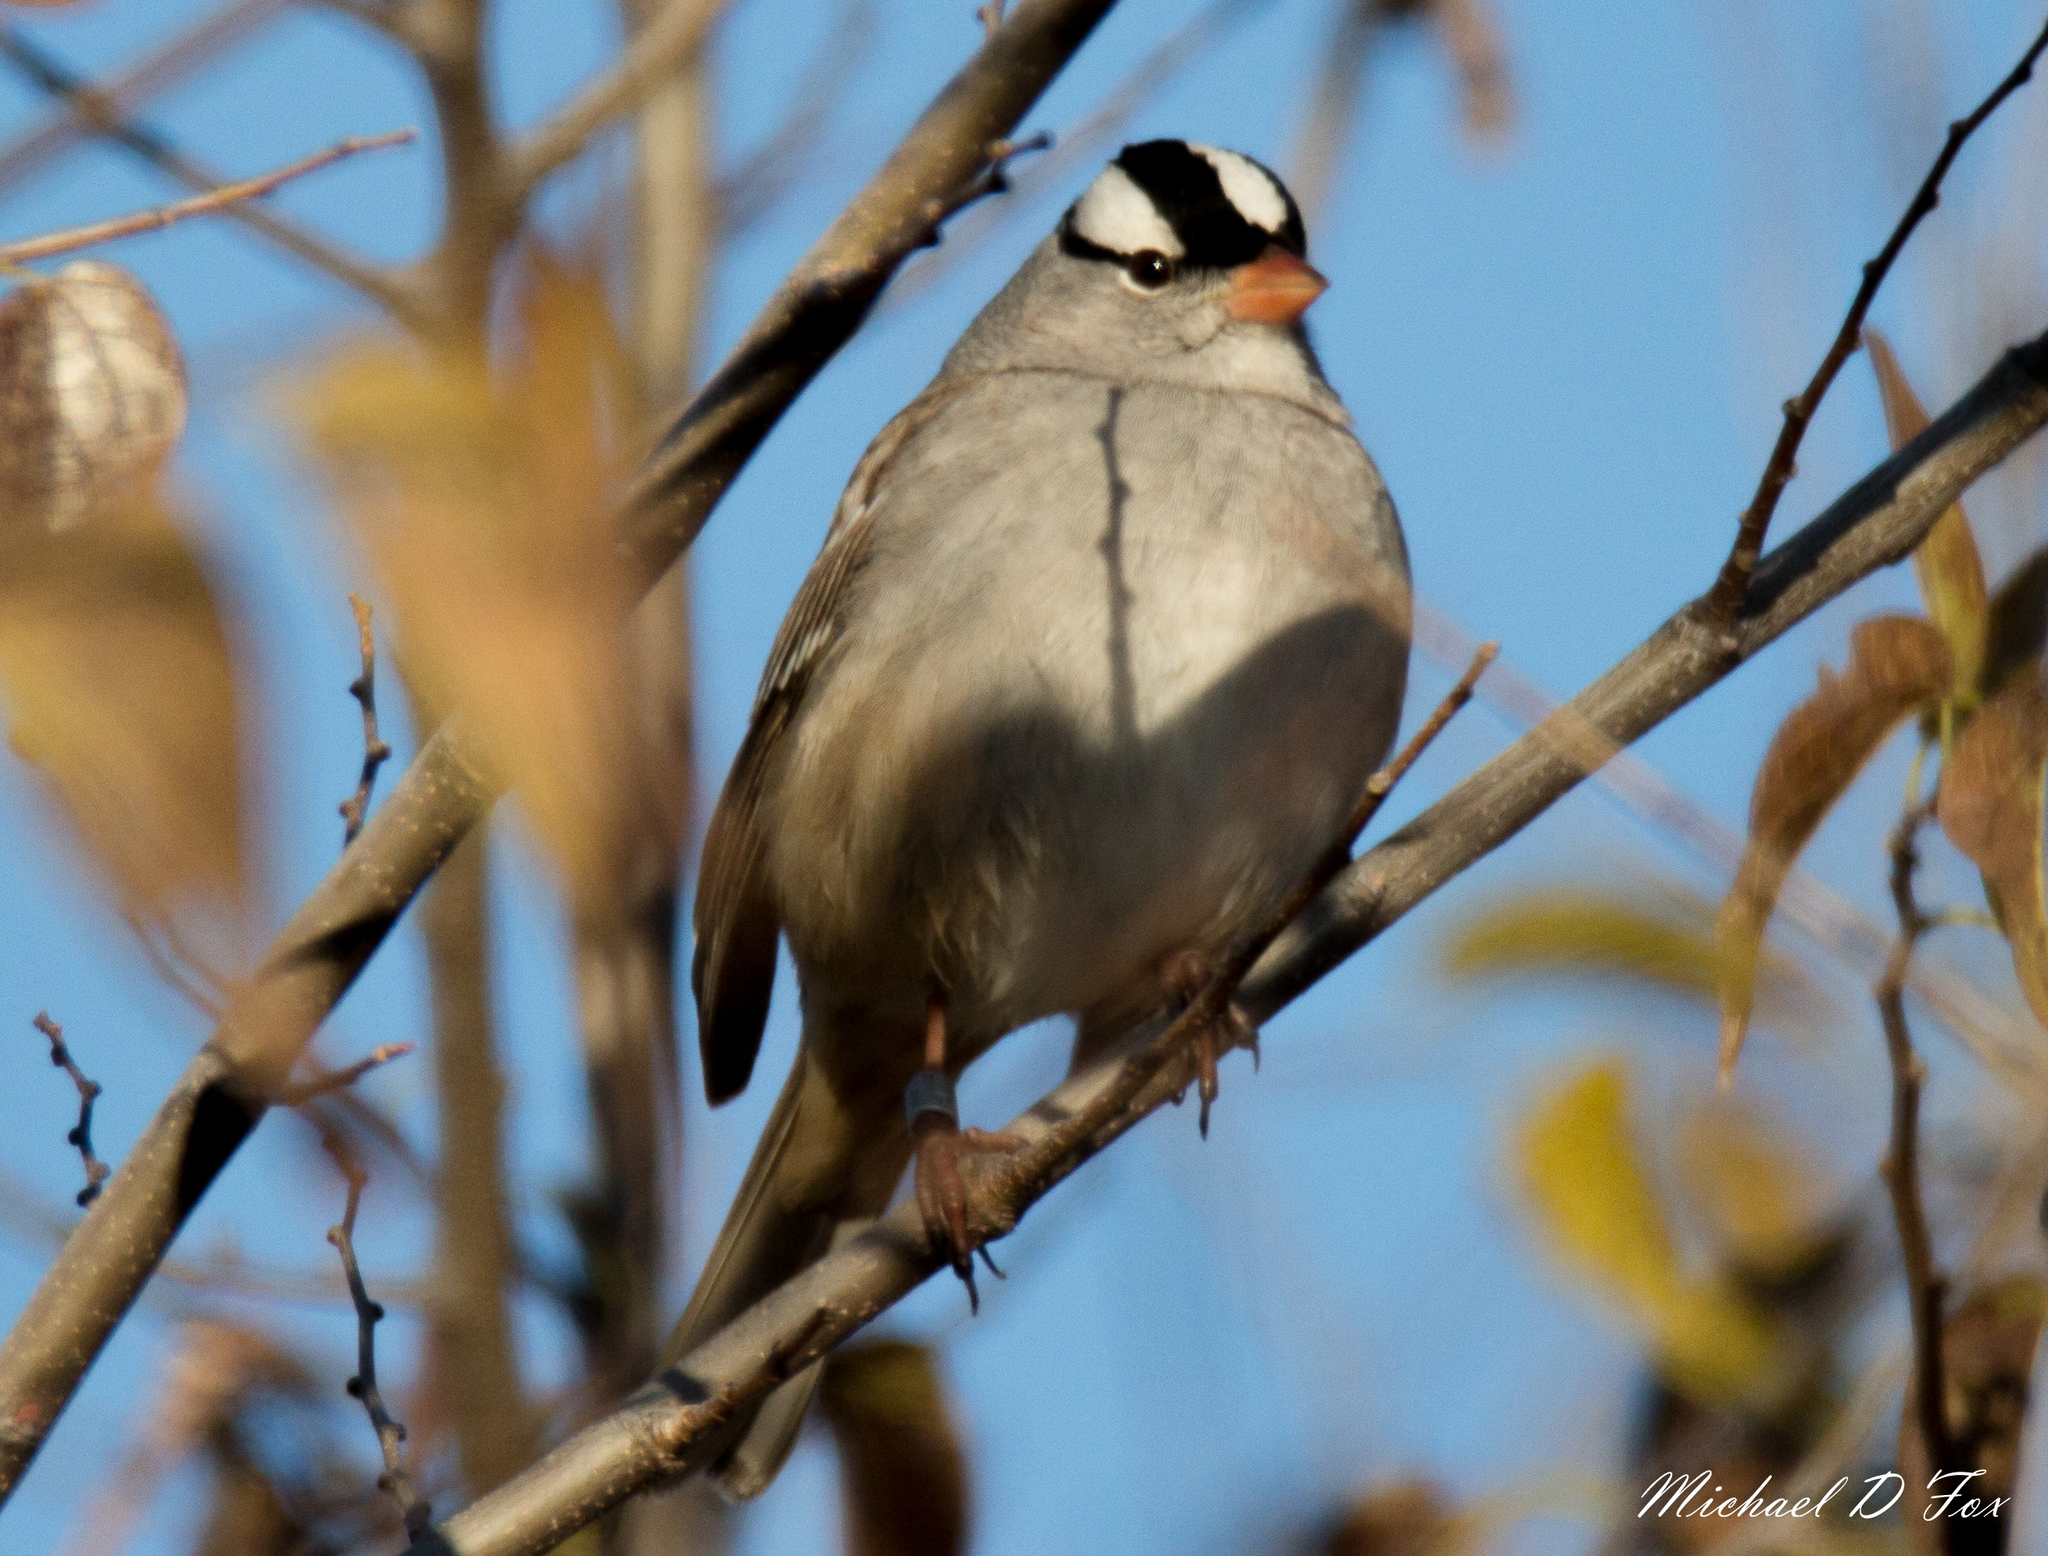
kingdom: Animalia
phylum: Chordata
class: Aves
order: Passeriformes
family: Passerellidae
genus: Zonotrichia
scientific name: Zonotrichia leucophrys
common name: White-crowned sparrow
